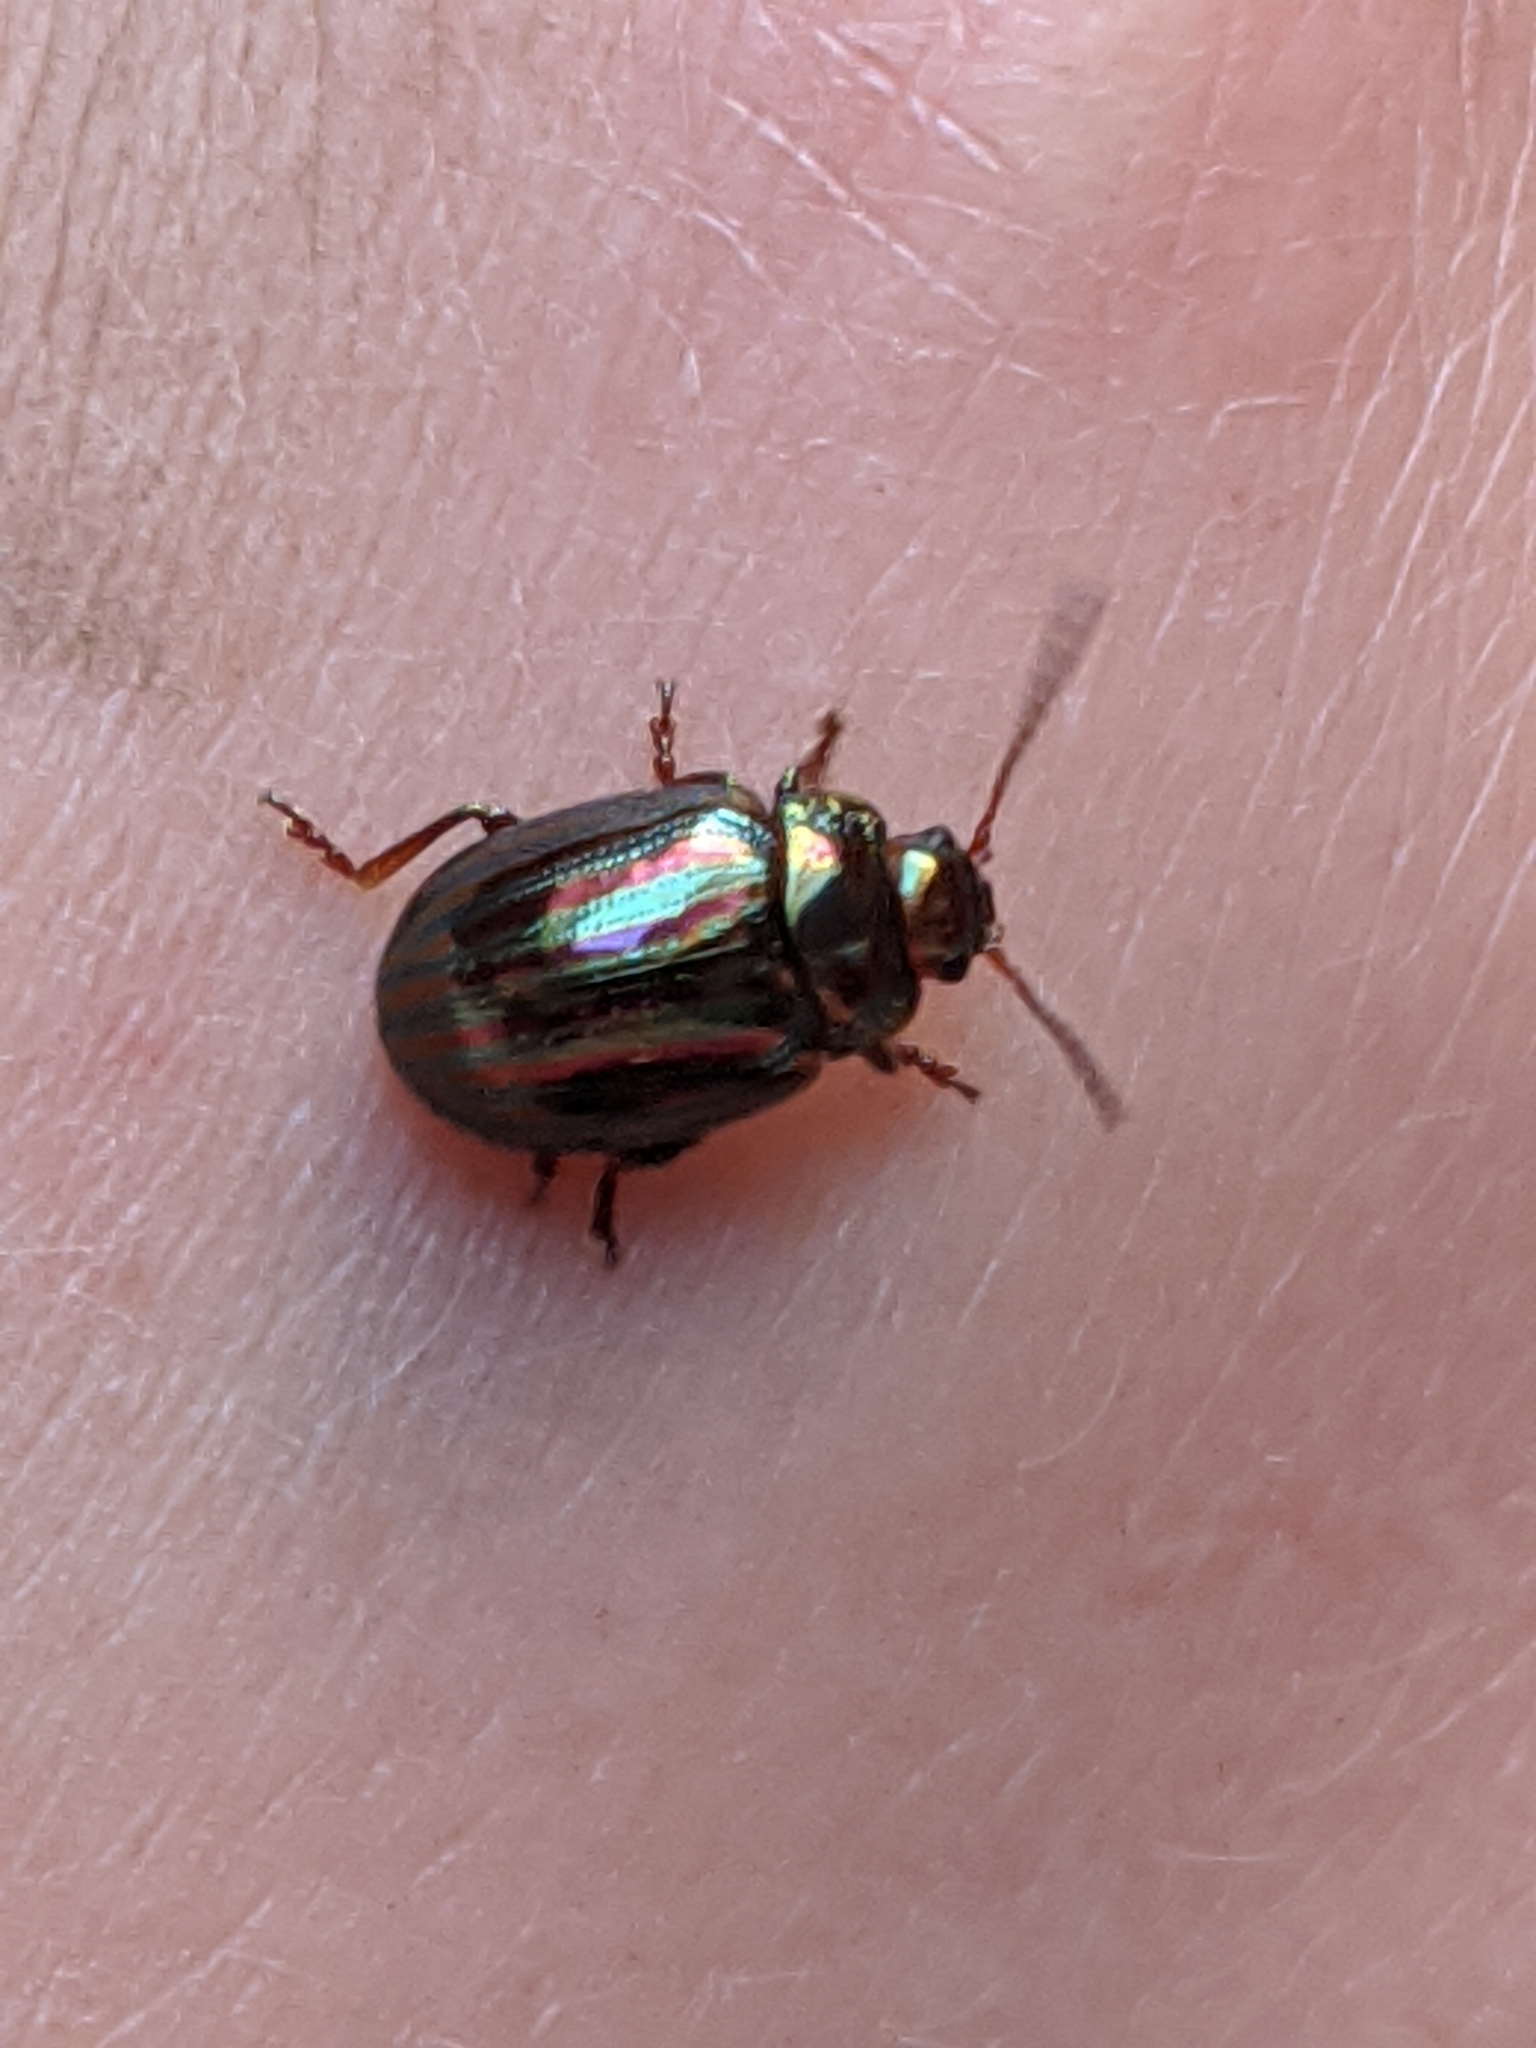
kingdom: Animalia
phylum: Arthropoda
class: Insecta
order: Coleoptera
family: Chrysomelidae
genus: Chrysolina
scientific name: Chrysolina americana
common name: Rosemary beetle
